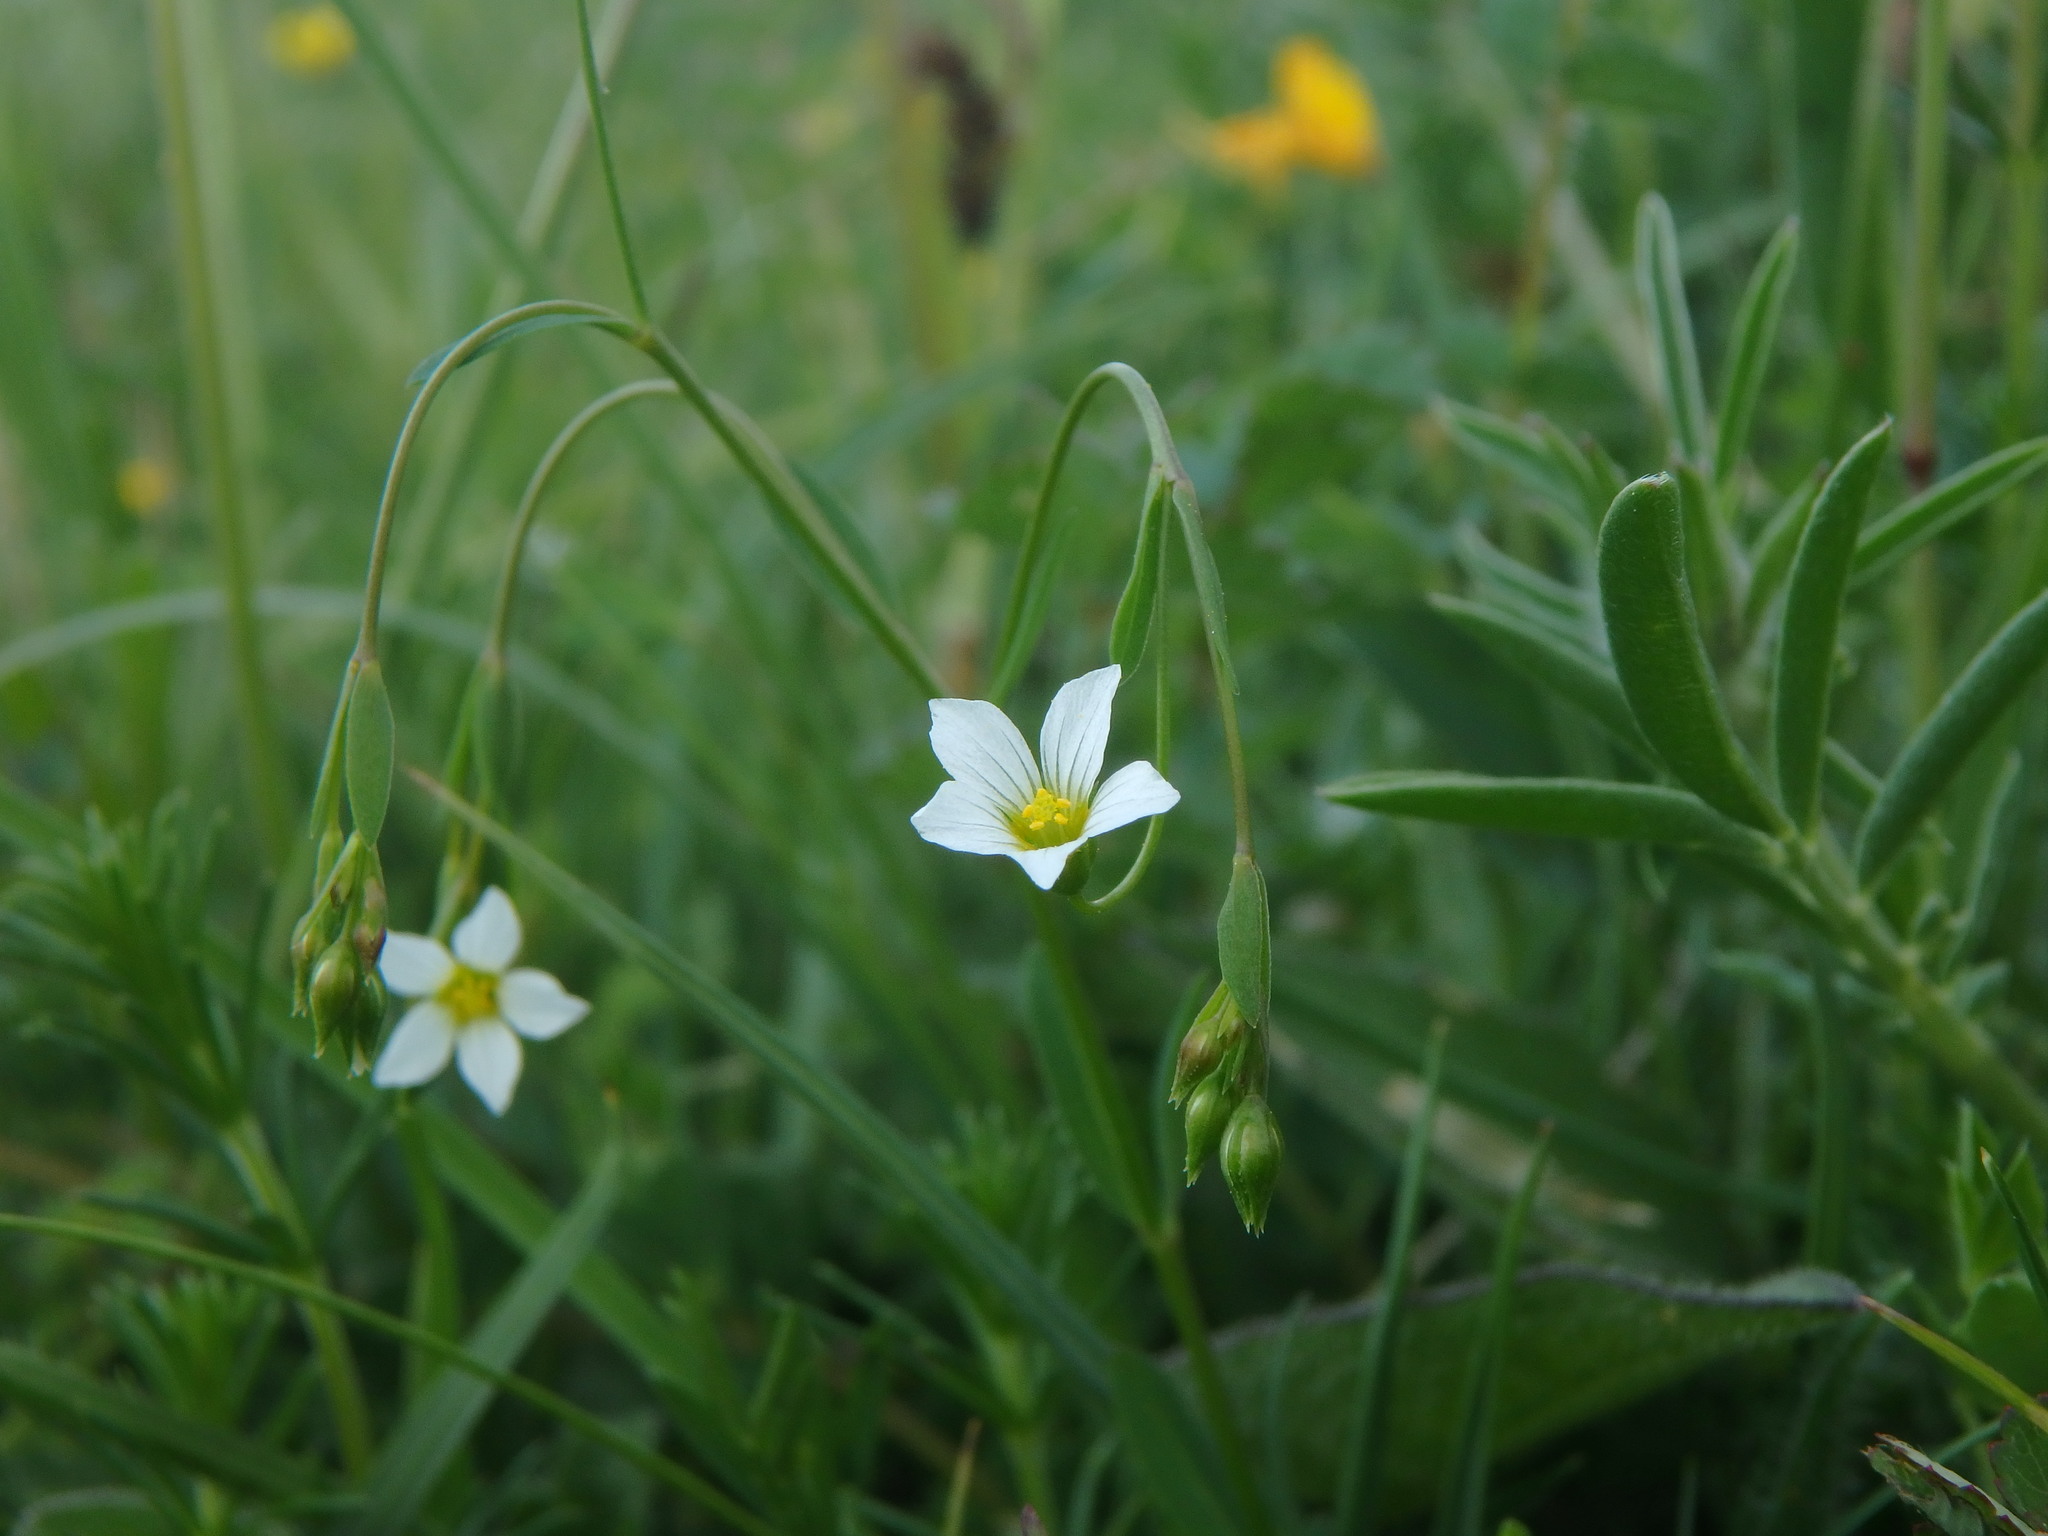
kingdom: Plantae
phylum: Tracheophyta
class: Magnoliopsida
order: Malpighiales
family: Linaceae
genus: Linum
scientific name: Linum catharticum
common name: Fairy flax
